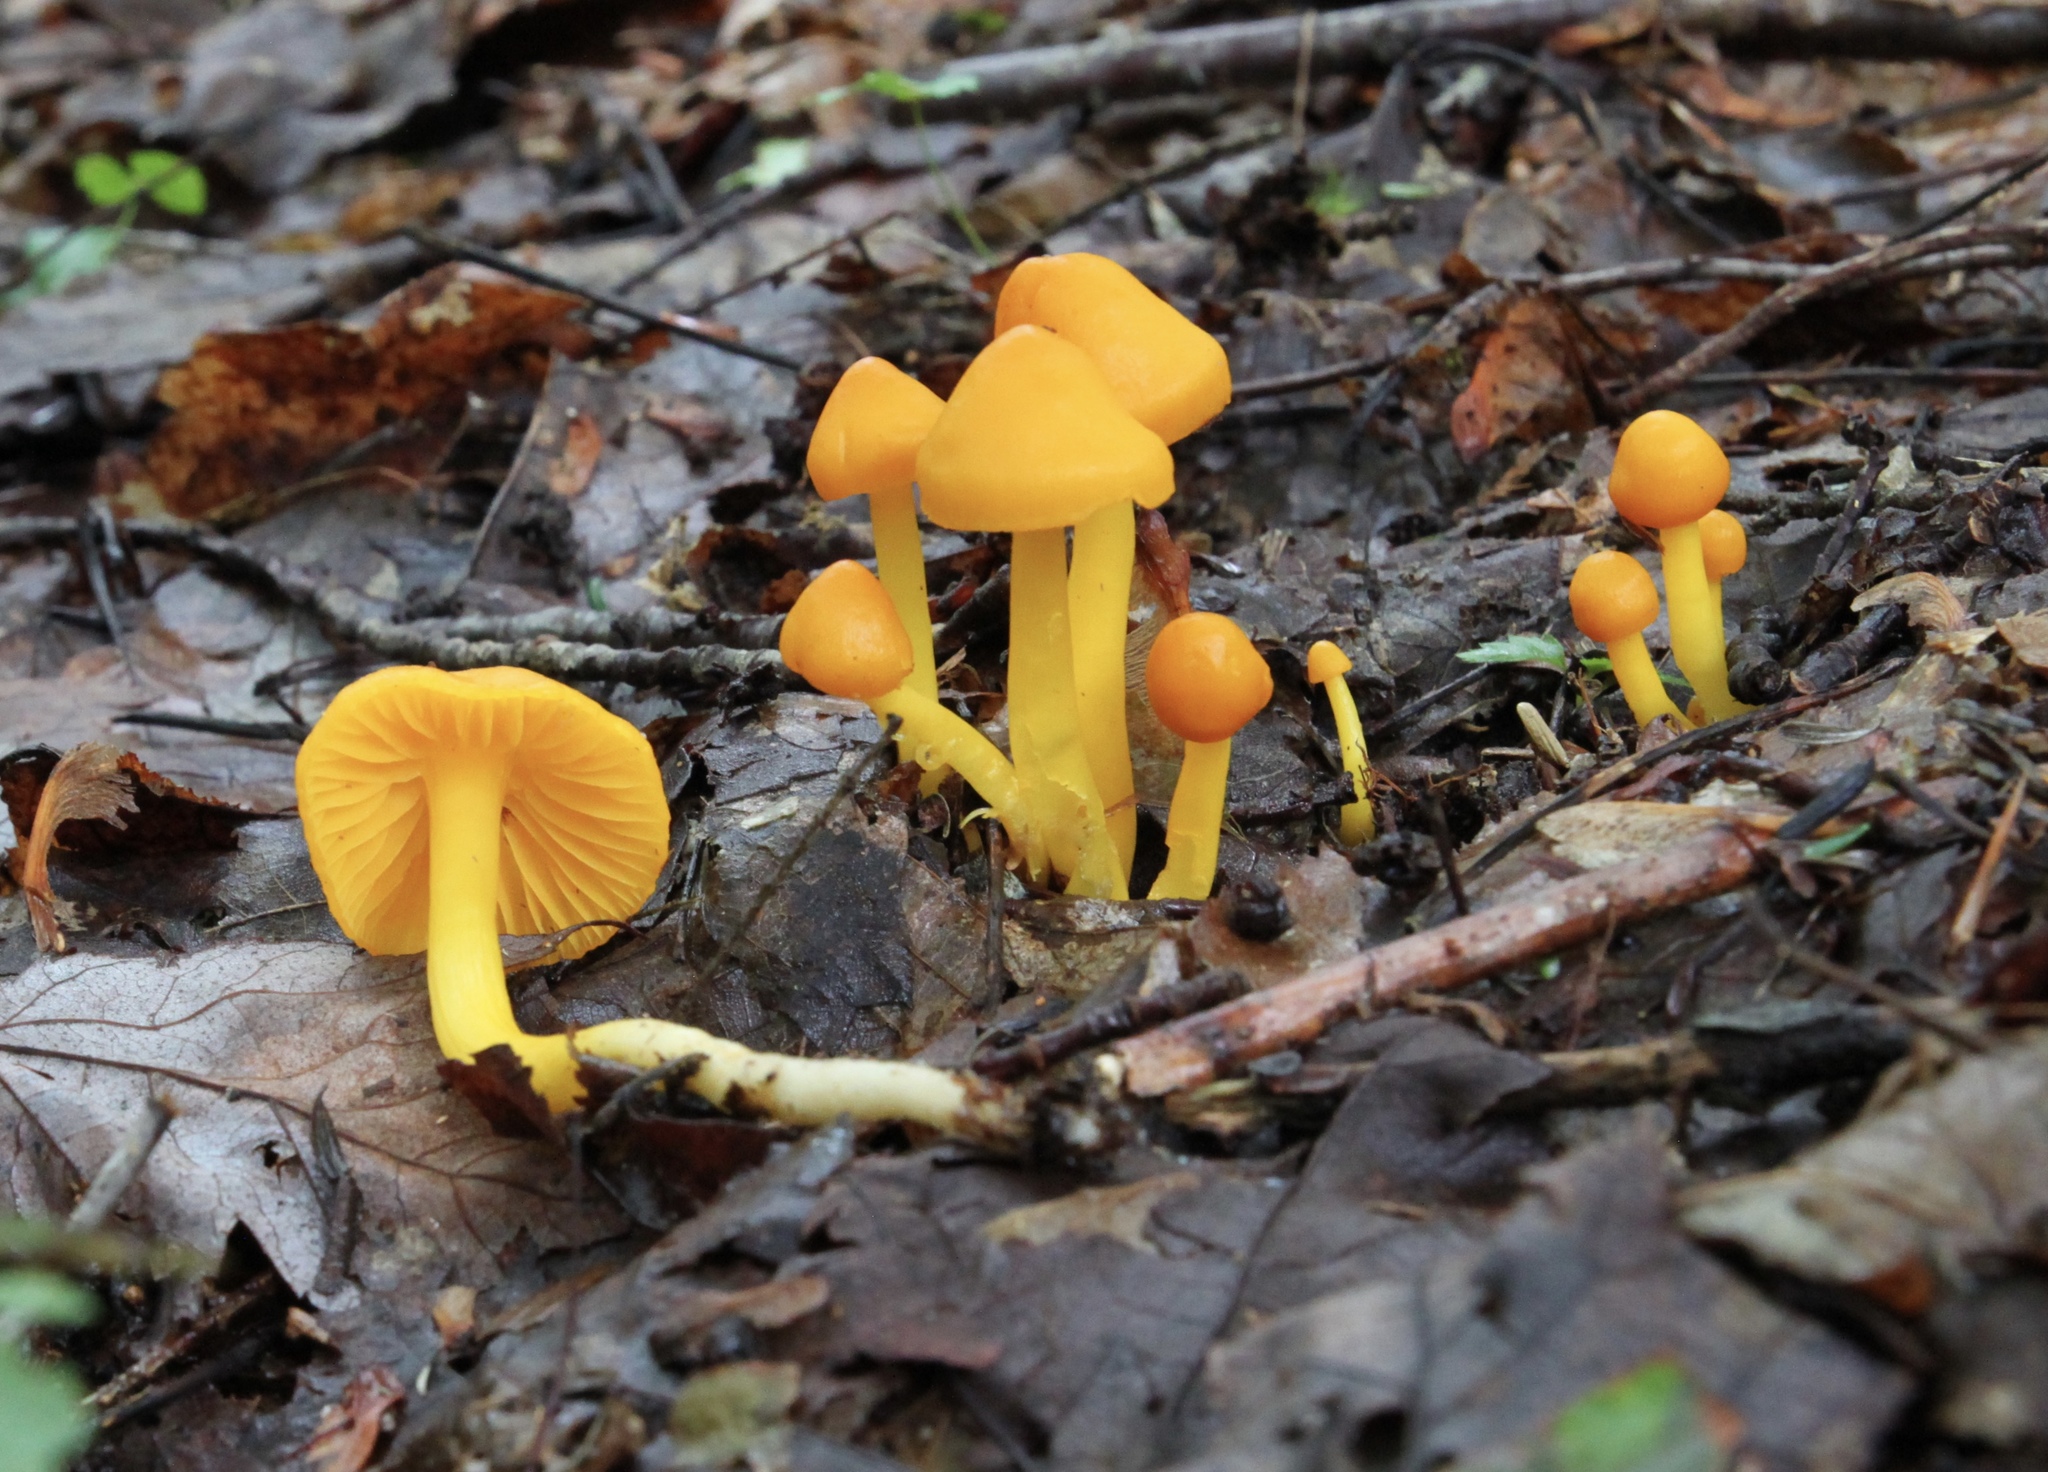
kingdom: Fungi
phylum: Basidiomycota
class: Agaricomycetes
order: Agaricales
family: Hygrophoraceae
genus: Humidicutis
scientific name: Humidicutis marginata
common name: Orange gilled waxcap
